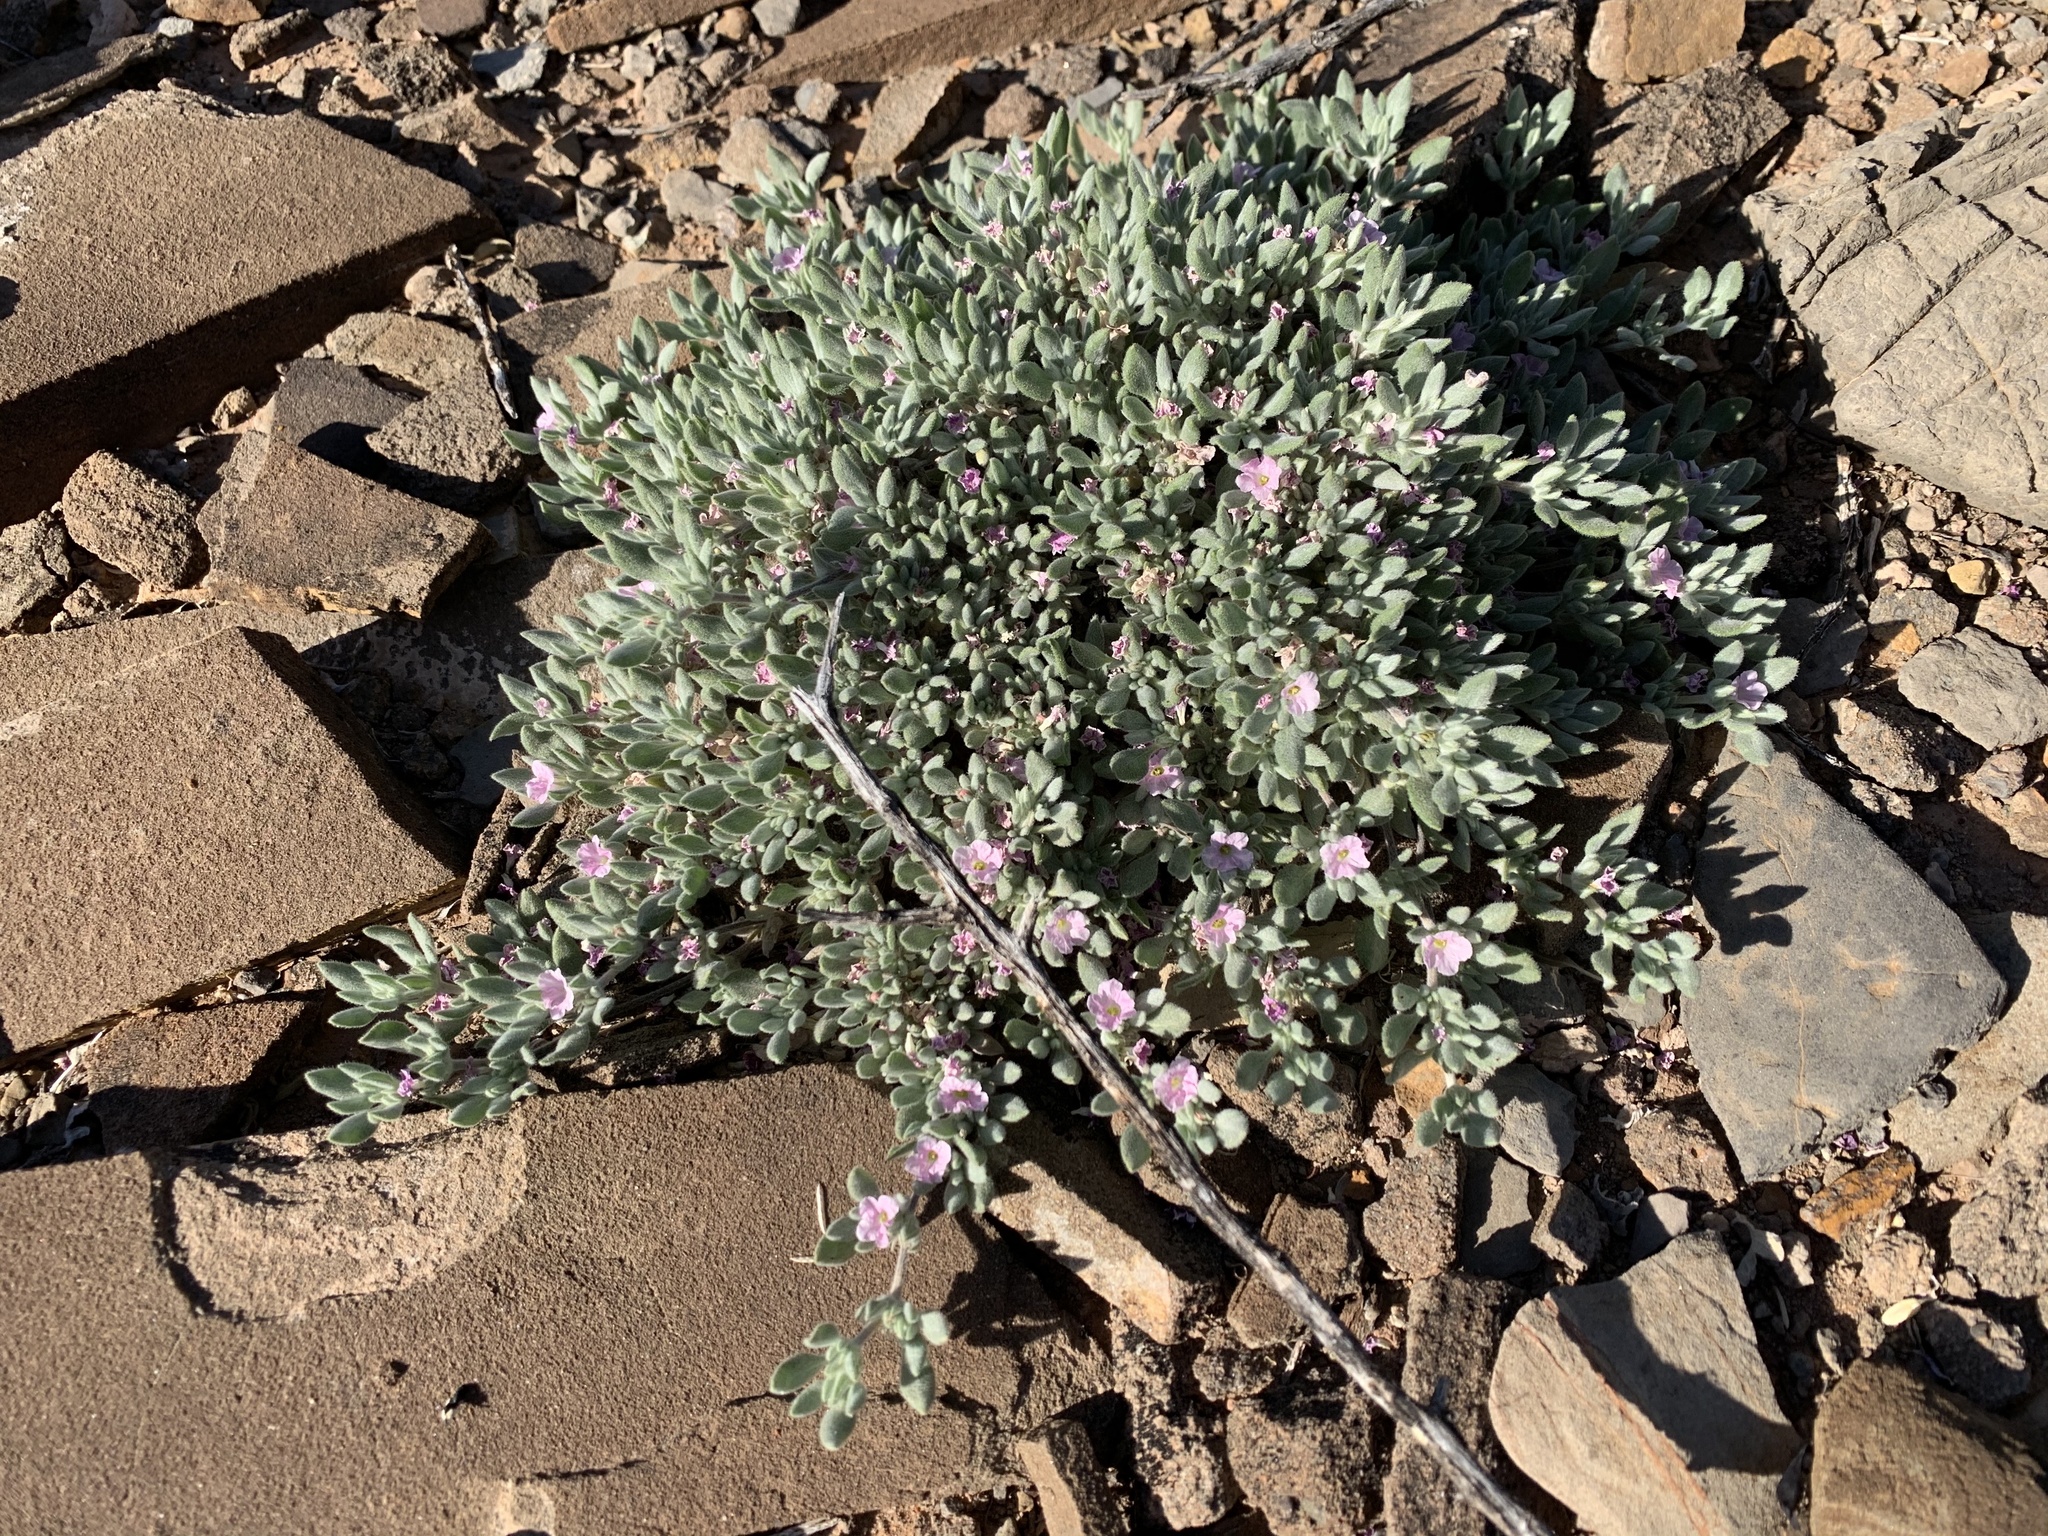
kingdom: Plantae
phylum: Tracheophyta
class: Magnoliopsida
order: Boraginales
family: Ehretiaceae
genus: Tiquilia
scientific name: Tiquilia canescens
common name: Hairy tiquilia
